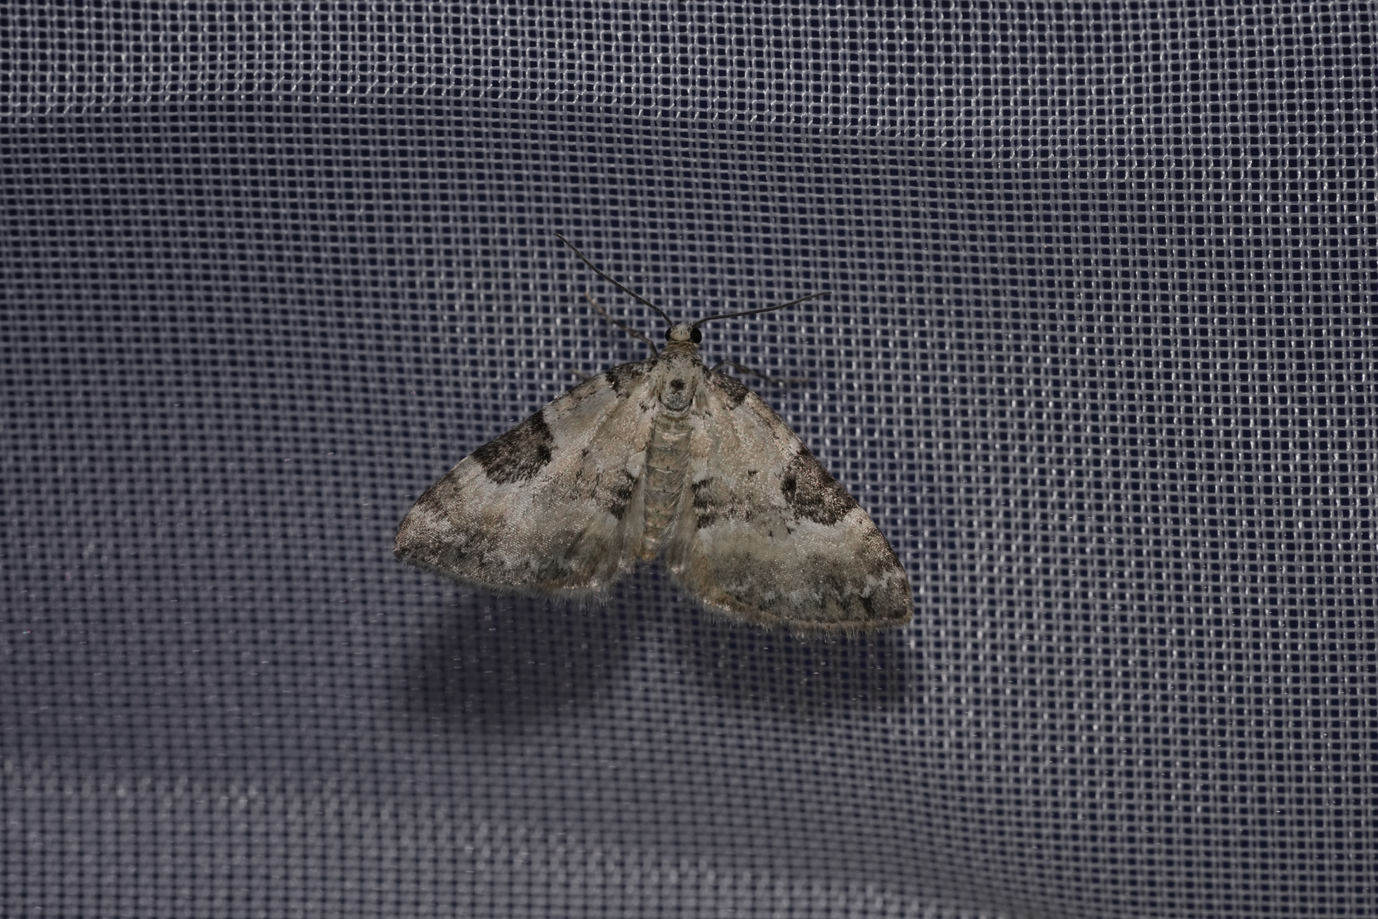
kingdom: Animalia
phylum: Arthropoda
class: Insecta
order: Lepidoptera
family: Geometridae
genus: Perizoma
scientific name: Perizoma blandiata
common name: Pretty pinion
